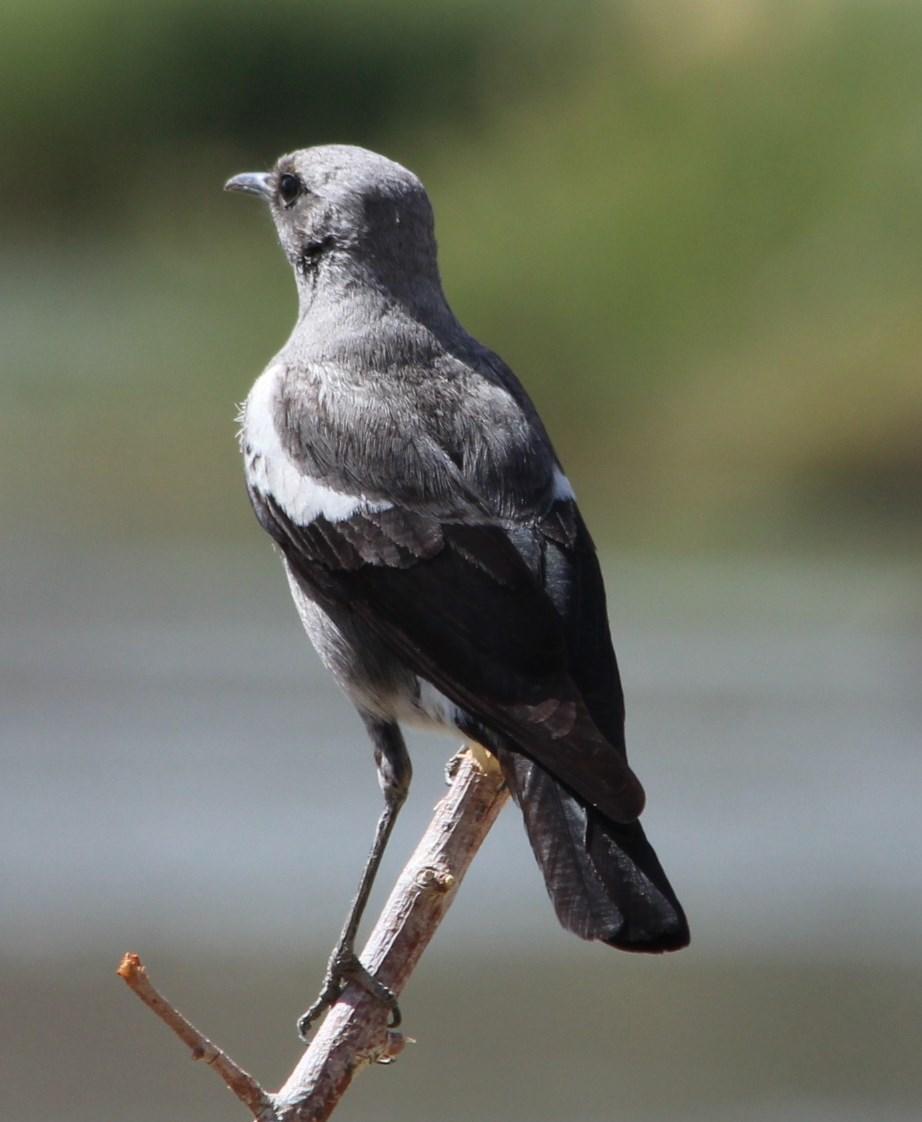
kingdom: Animalia
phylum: Chordata
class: Aves
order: Passeriformes
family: Muscicapidae
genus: Oenanthe
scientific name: Oenanthe monticola
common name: Mountain wheatear
